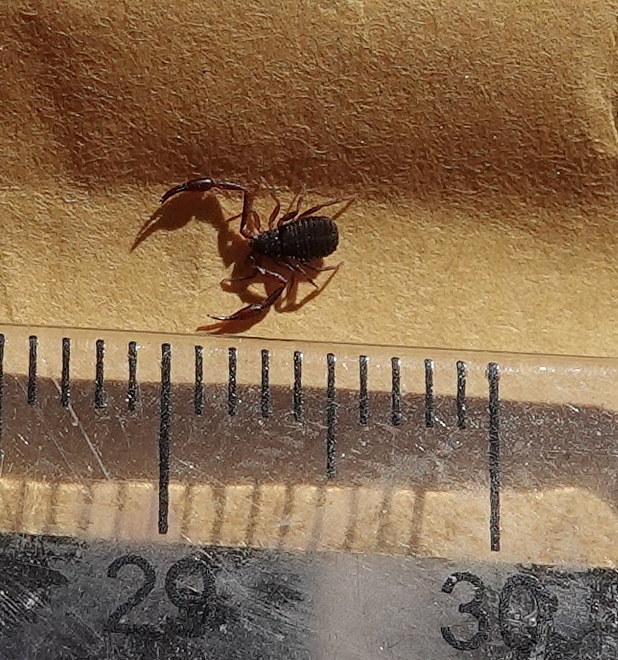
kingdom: Animalia
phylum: Arthropoda
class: Arachnida
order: Pseudoscorpiones
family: Cheliferidae
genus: Chelifer
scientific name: Chelifer cancroides
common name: House false-scorpion
